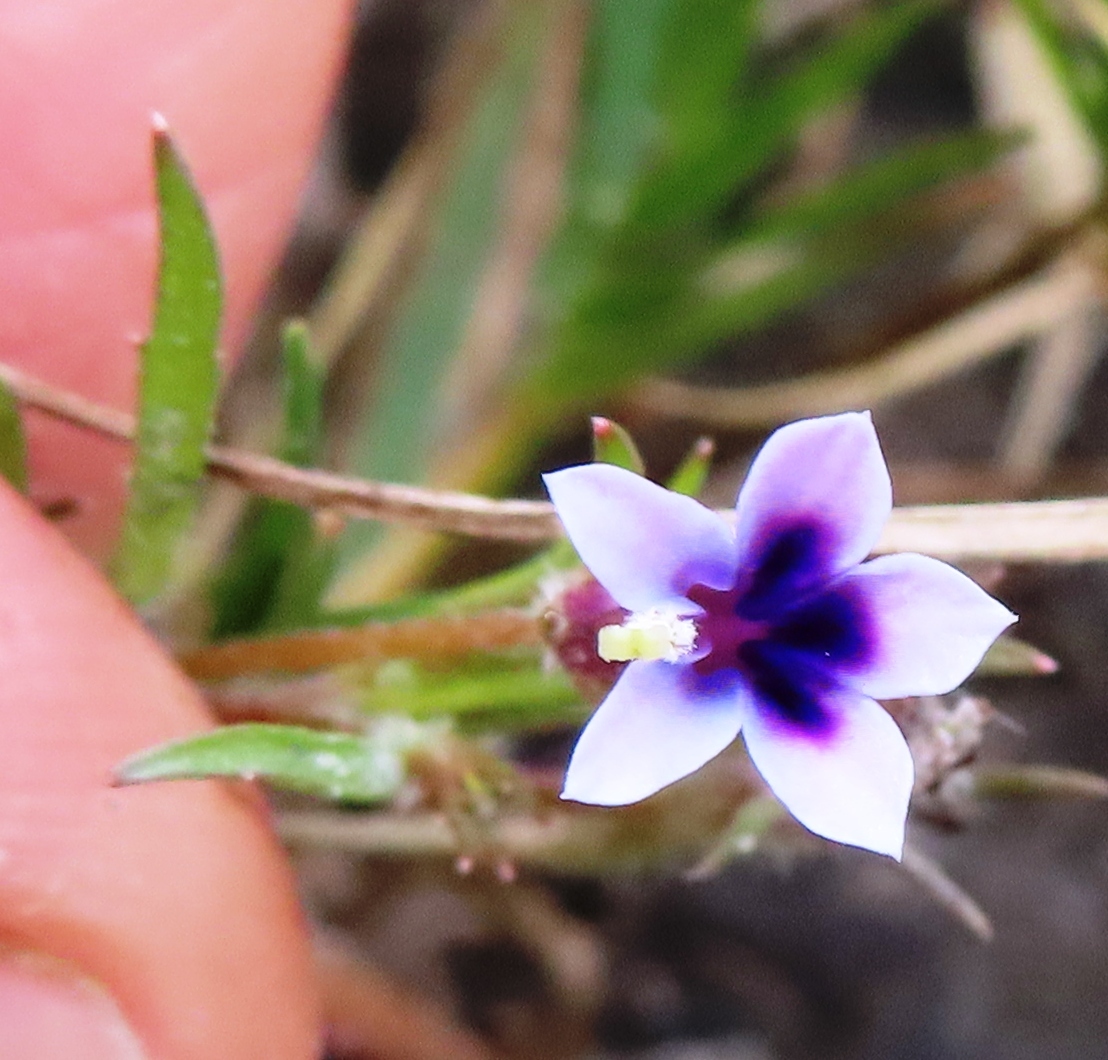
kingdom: Plantae
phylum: Tracheophyta
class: Magnoliopsida
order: Asterales
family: Campanulaceae
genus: Monopsis
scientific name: Monopsis debilis
